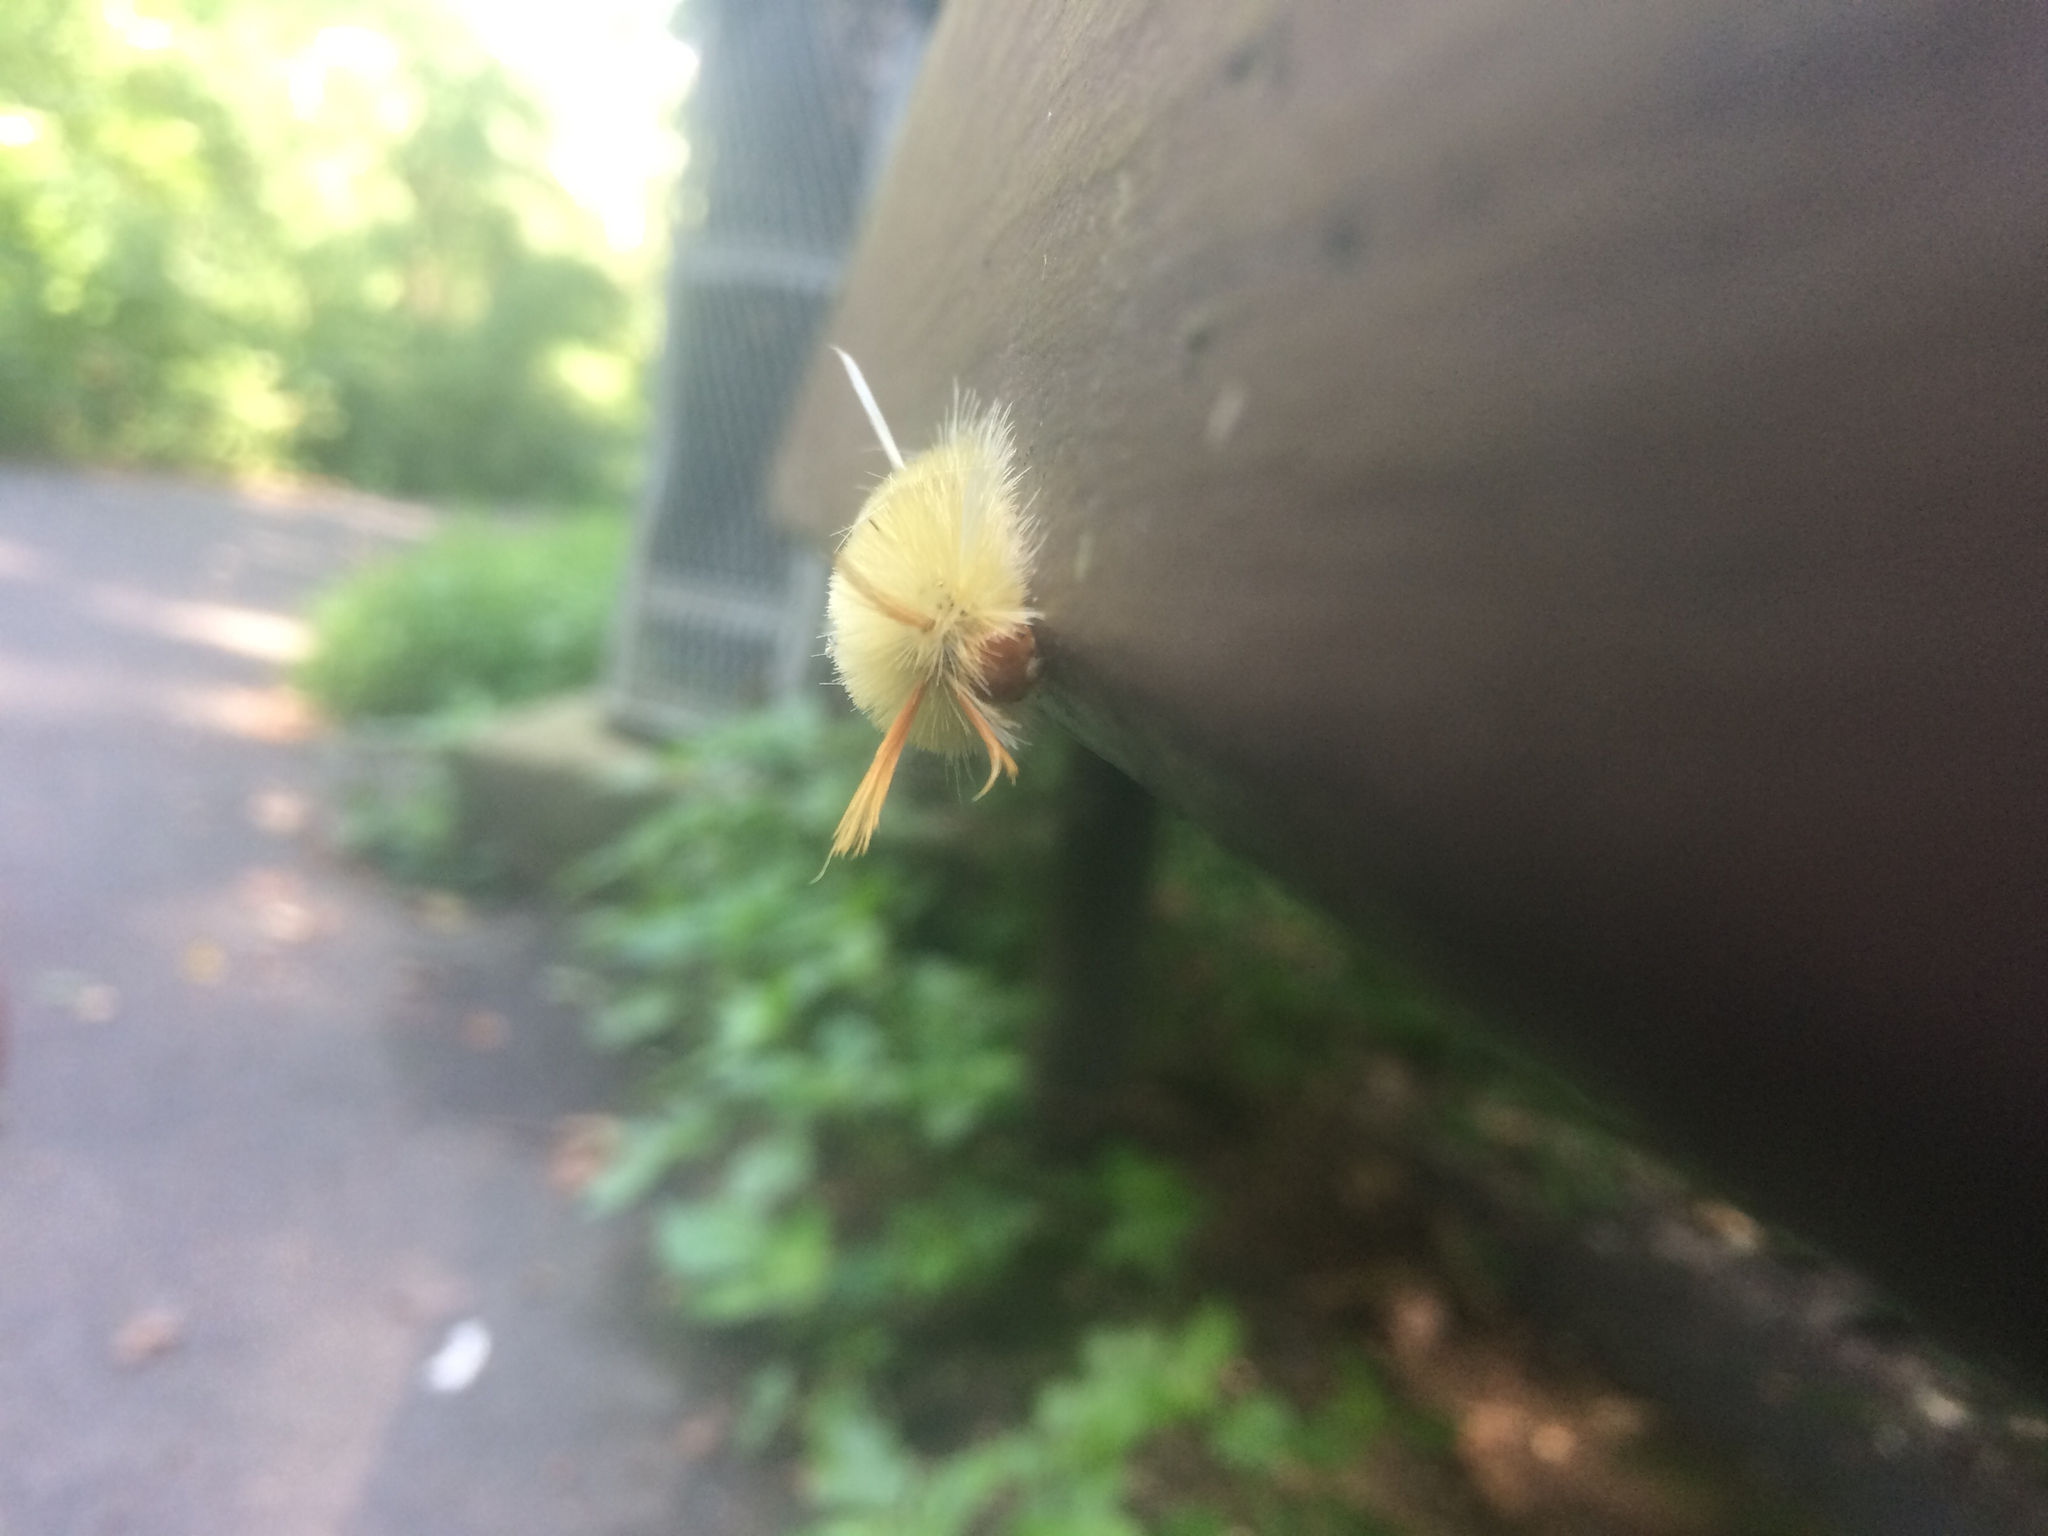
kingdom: Animalia
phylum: Arthropoda
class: Insecta
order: Lepidoptera
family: Erebidae
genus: Halysidota
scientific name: Halysidota harrisii
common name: Sycamore tussock moth
